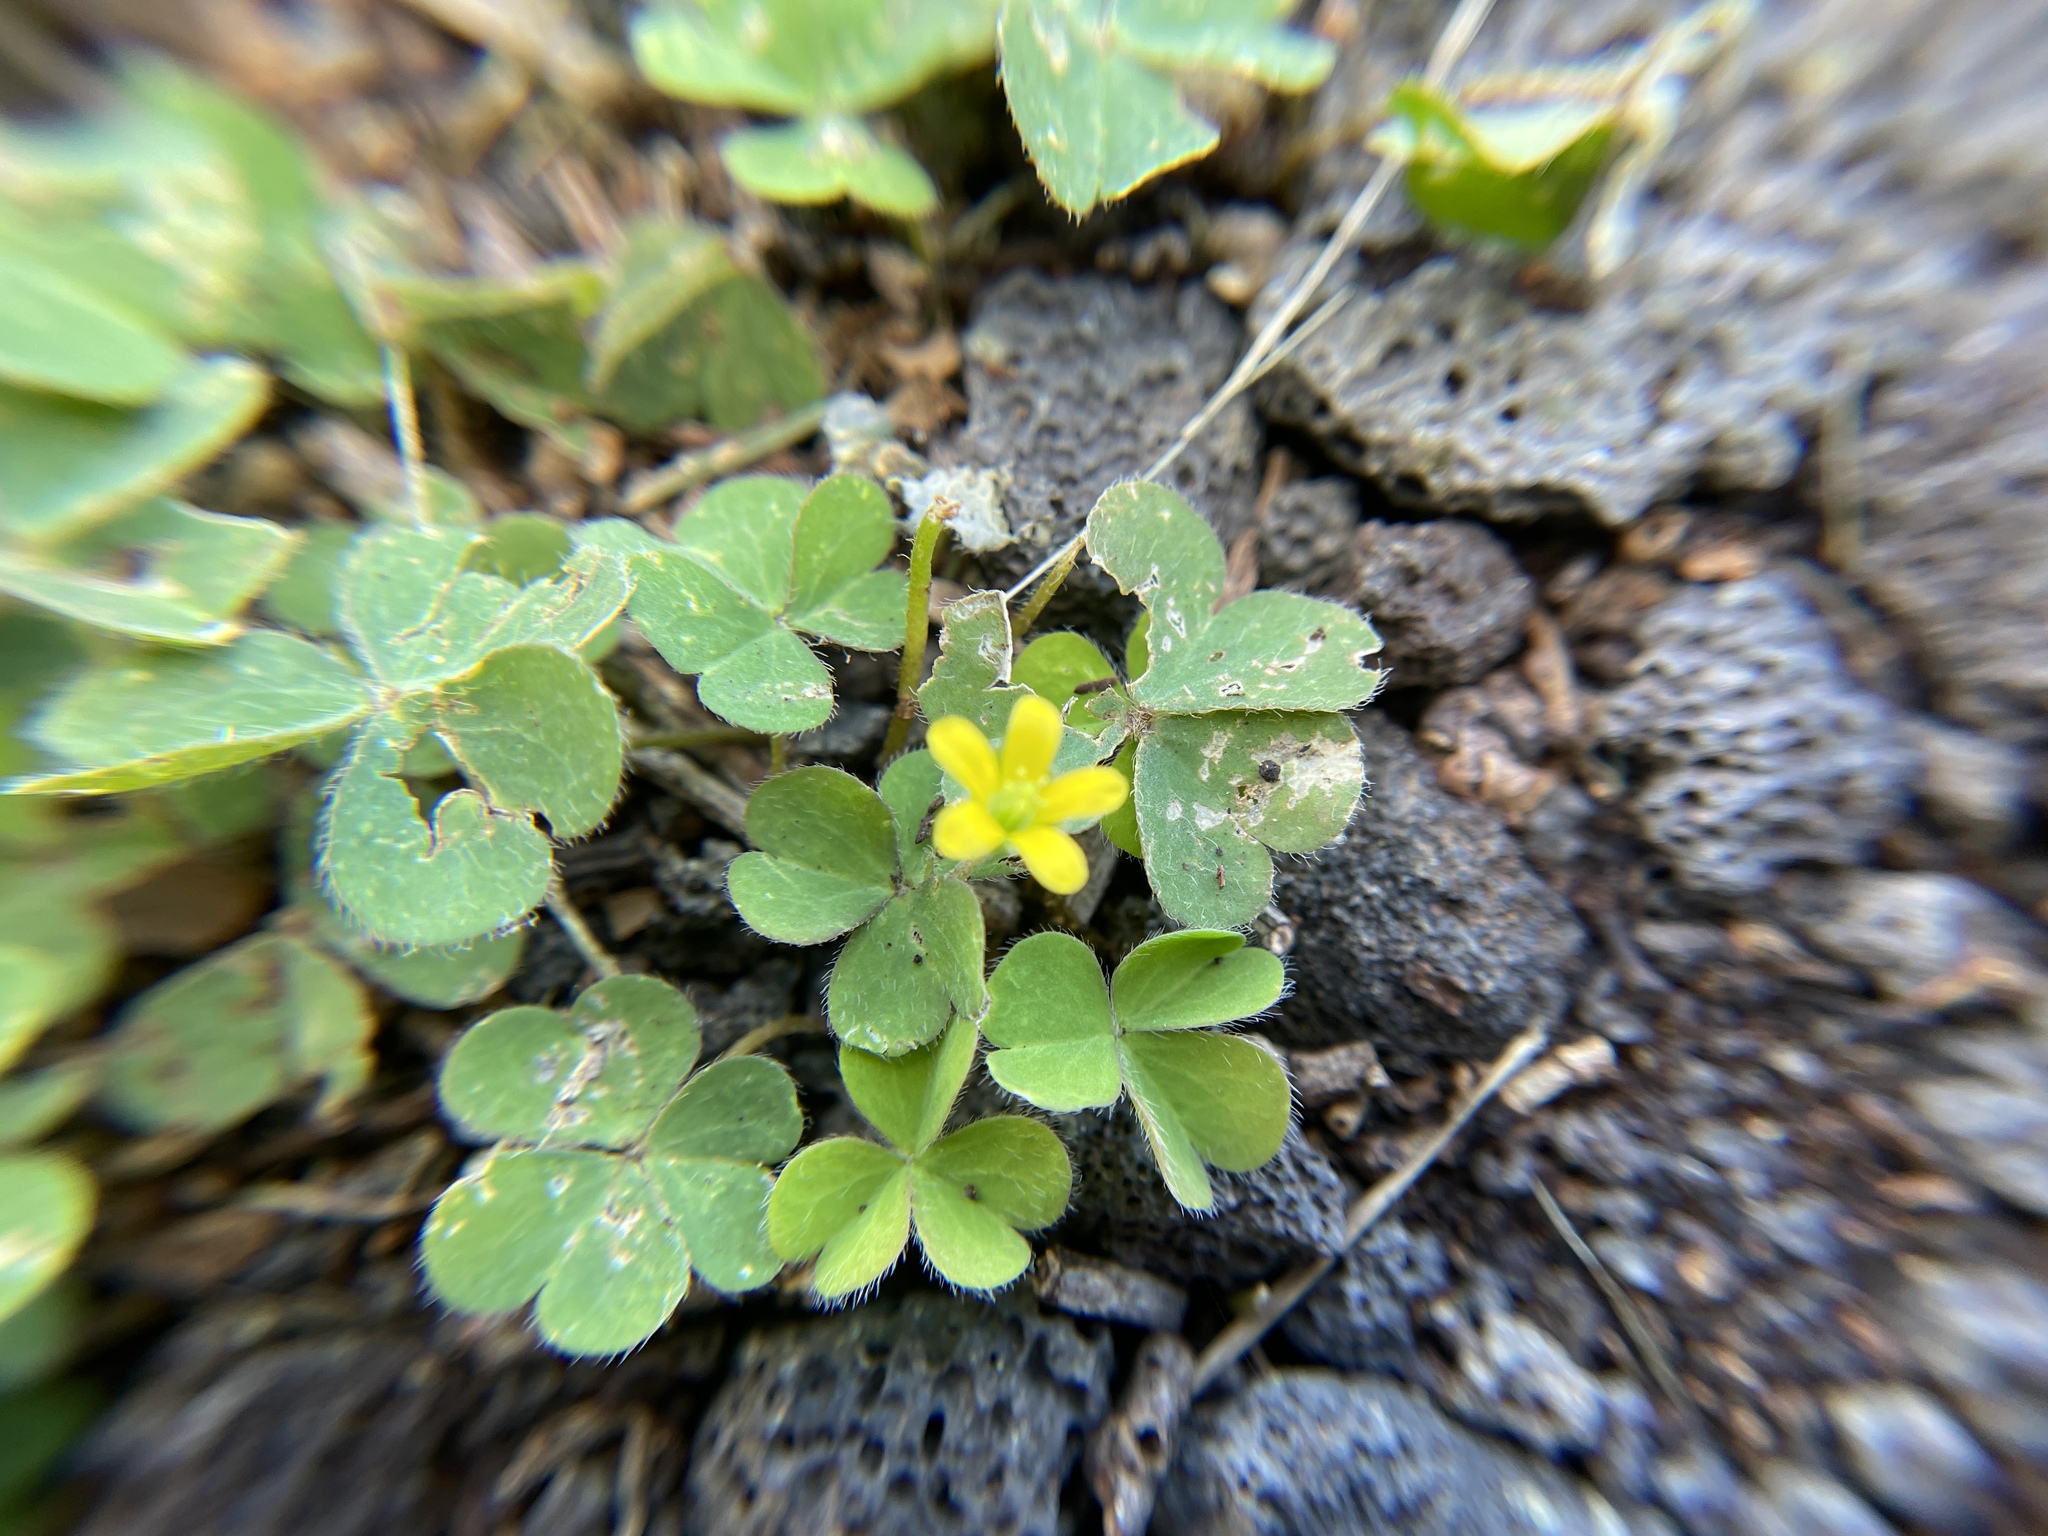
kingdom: Plantae
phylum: Tracheophyta
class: Magnoliopsida
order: Oxalidales
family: Oxalidaceae
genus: Oxalis
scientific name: Oxalis corniculata
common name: Procumbent yellow-sorrel
